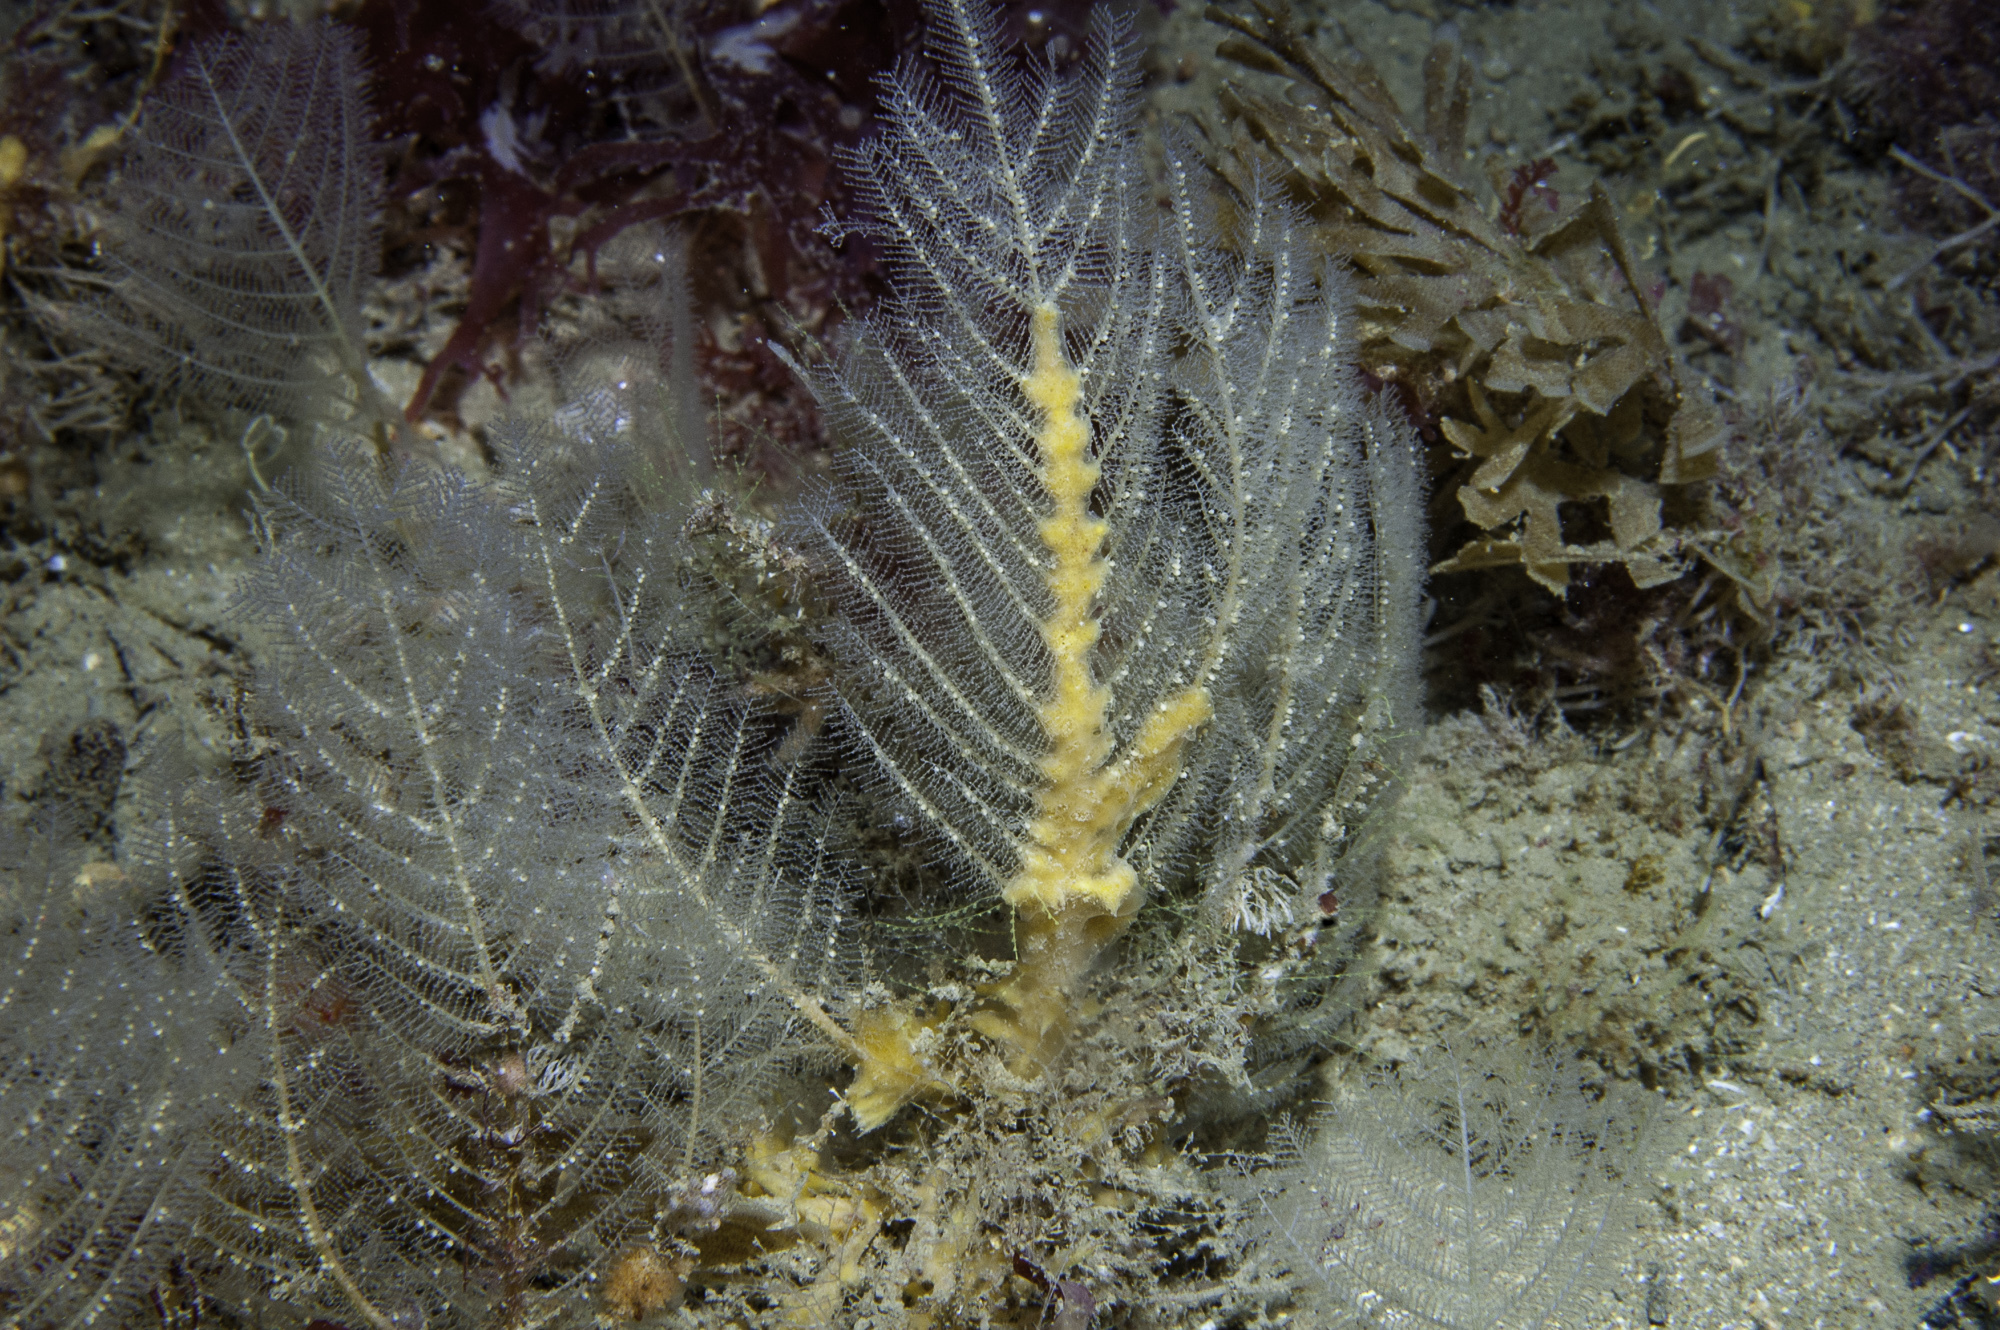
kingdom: Animalia
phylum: Cnidaria
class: Hydrozoa
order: Leptothecata
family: Halopterididae
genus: Polyplumaria
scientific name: Polyplumaria flabellata
